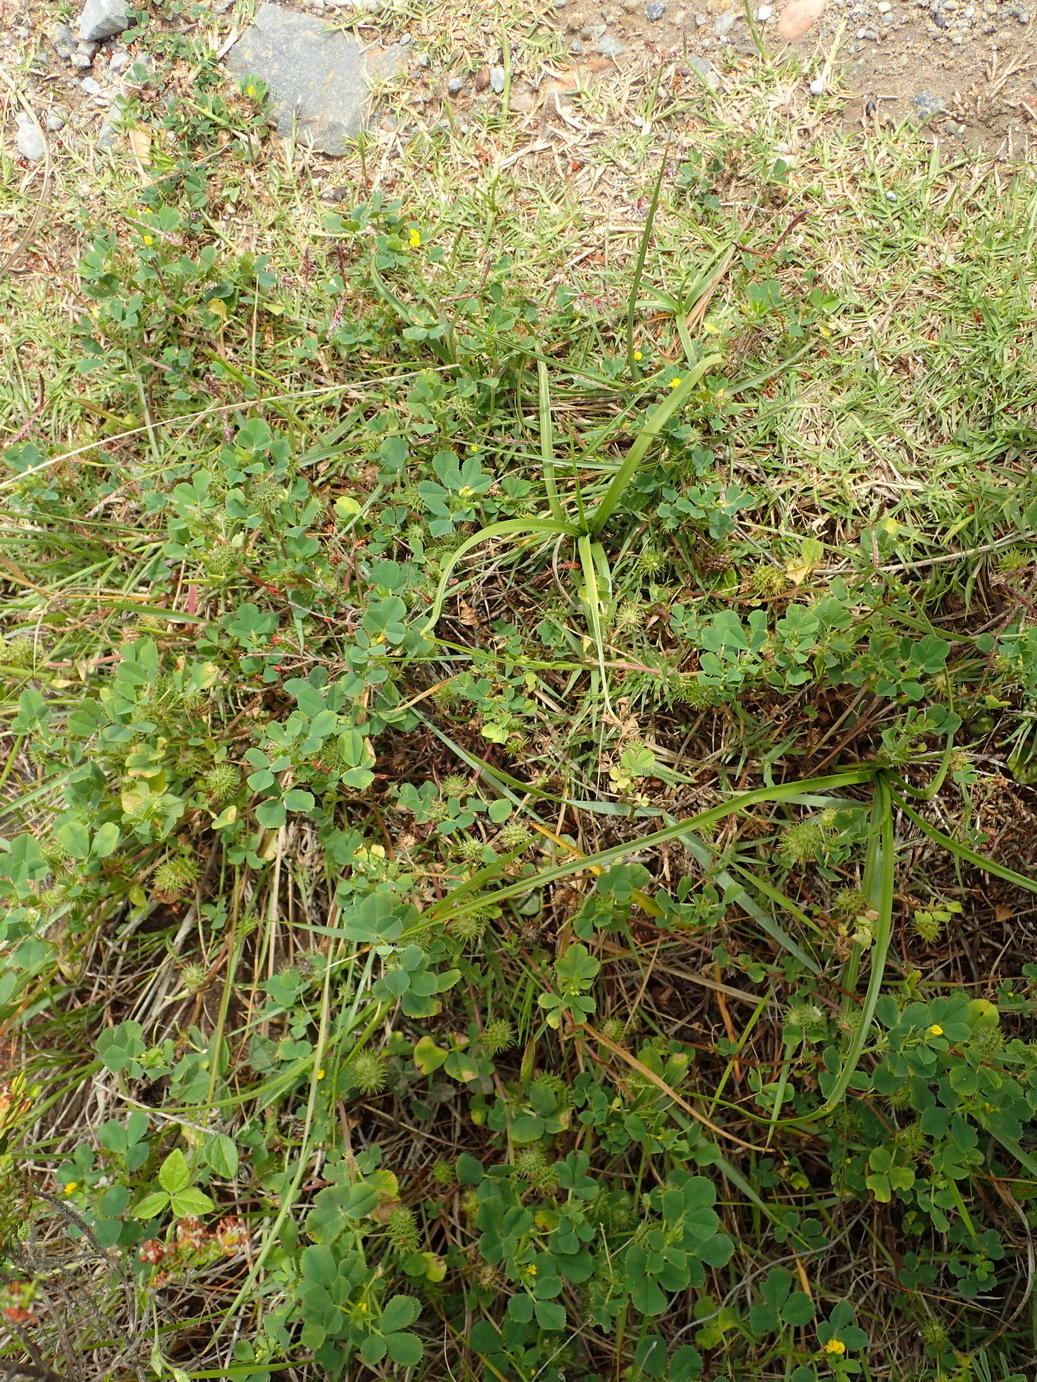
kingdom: Plantae
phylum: Tracheophyta
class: Magnoliopsida
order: Fabales
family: Fabaceae
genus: Medicago
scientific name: Medicago polymorpha
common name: Burclover
